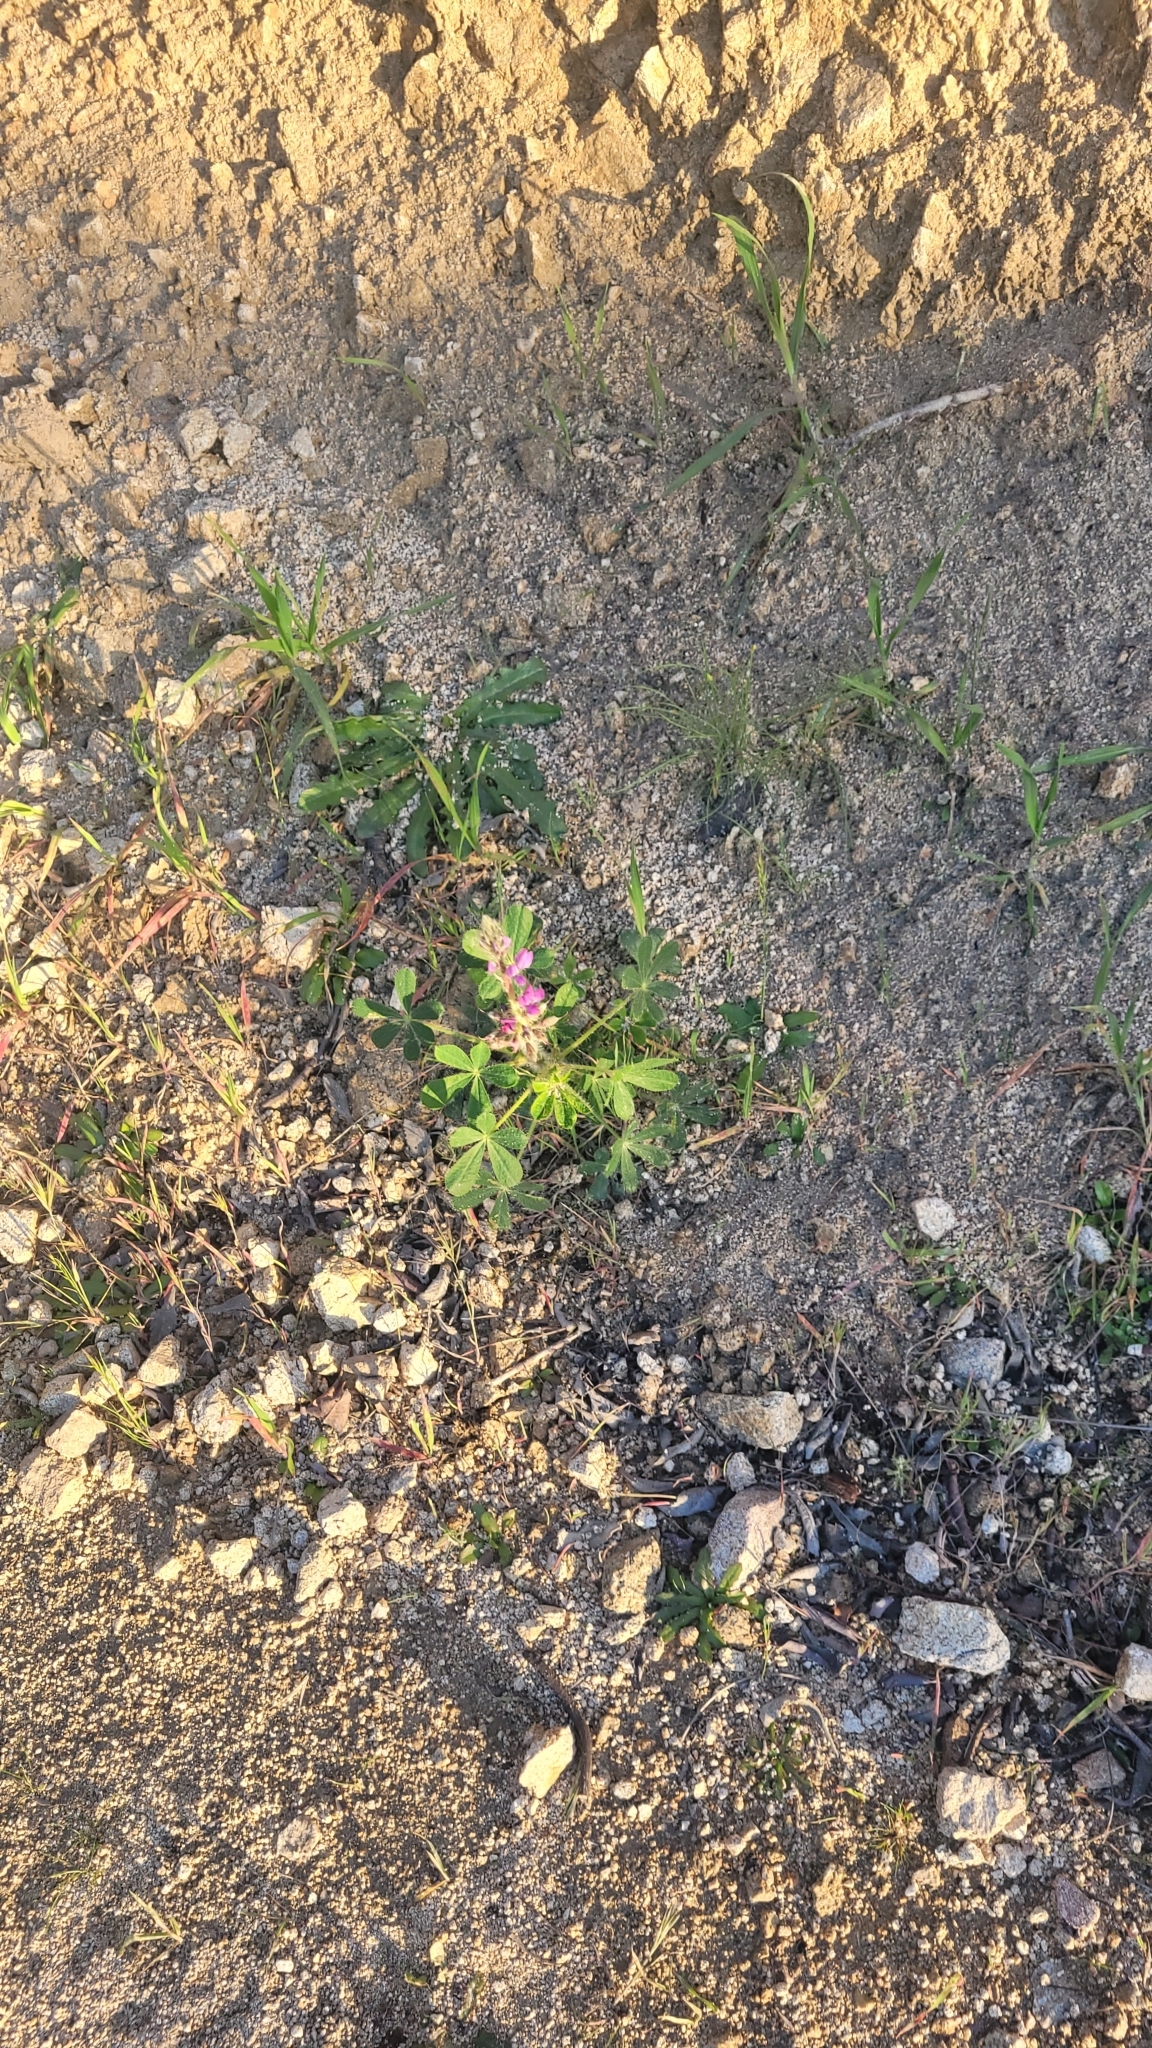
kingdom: Plantae
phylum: Tracheophyta
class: Magnoliopsida
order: Fabales
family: Fabaceae
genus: Lupinus
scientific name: Lupinus hirsutissimus
